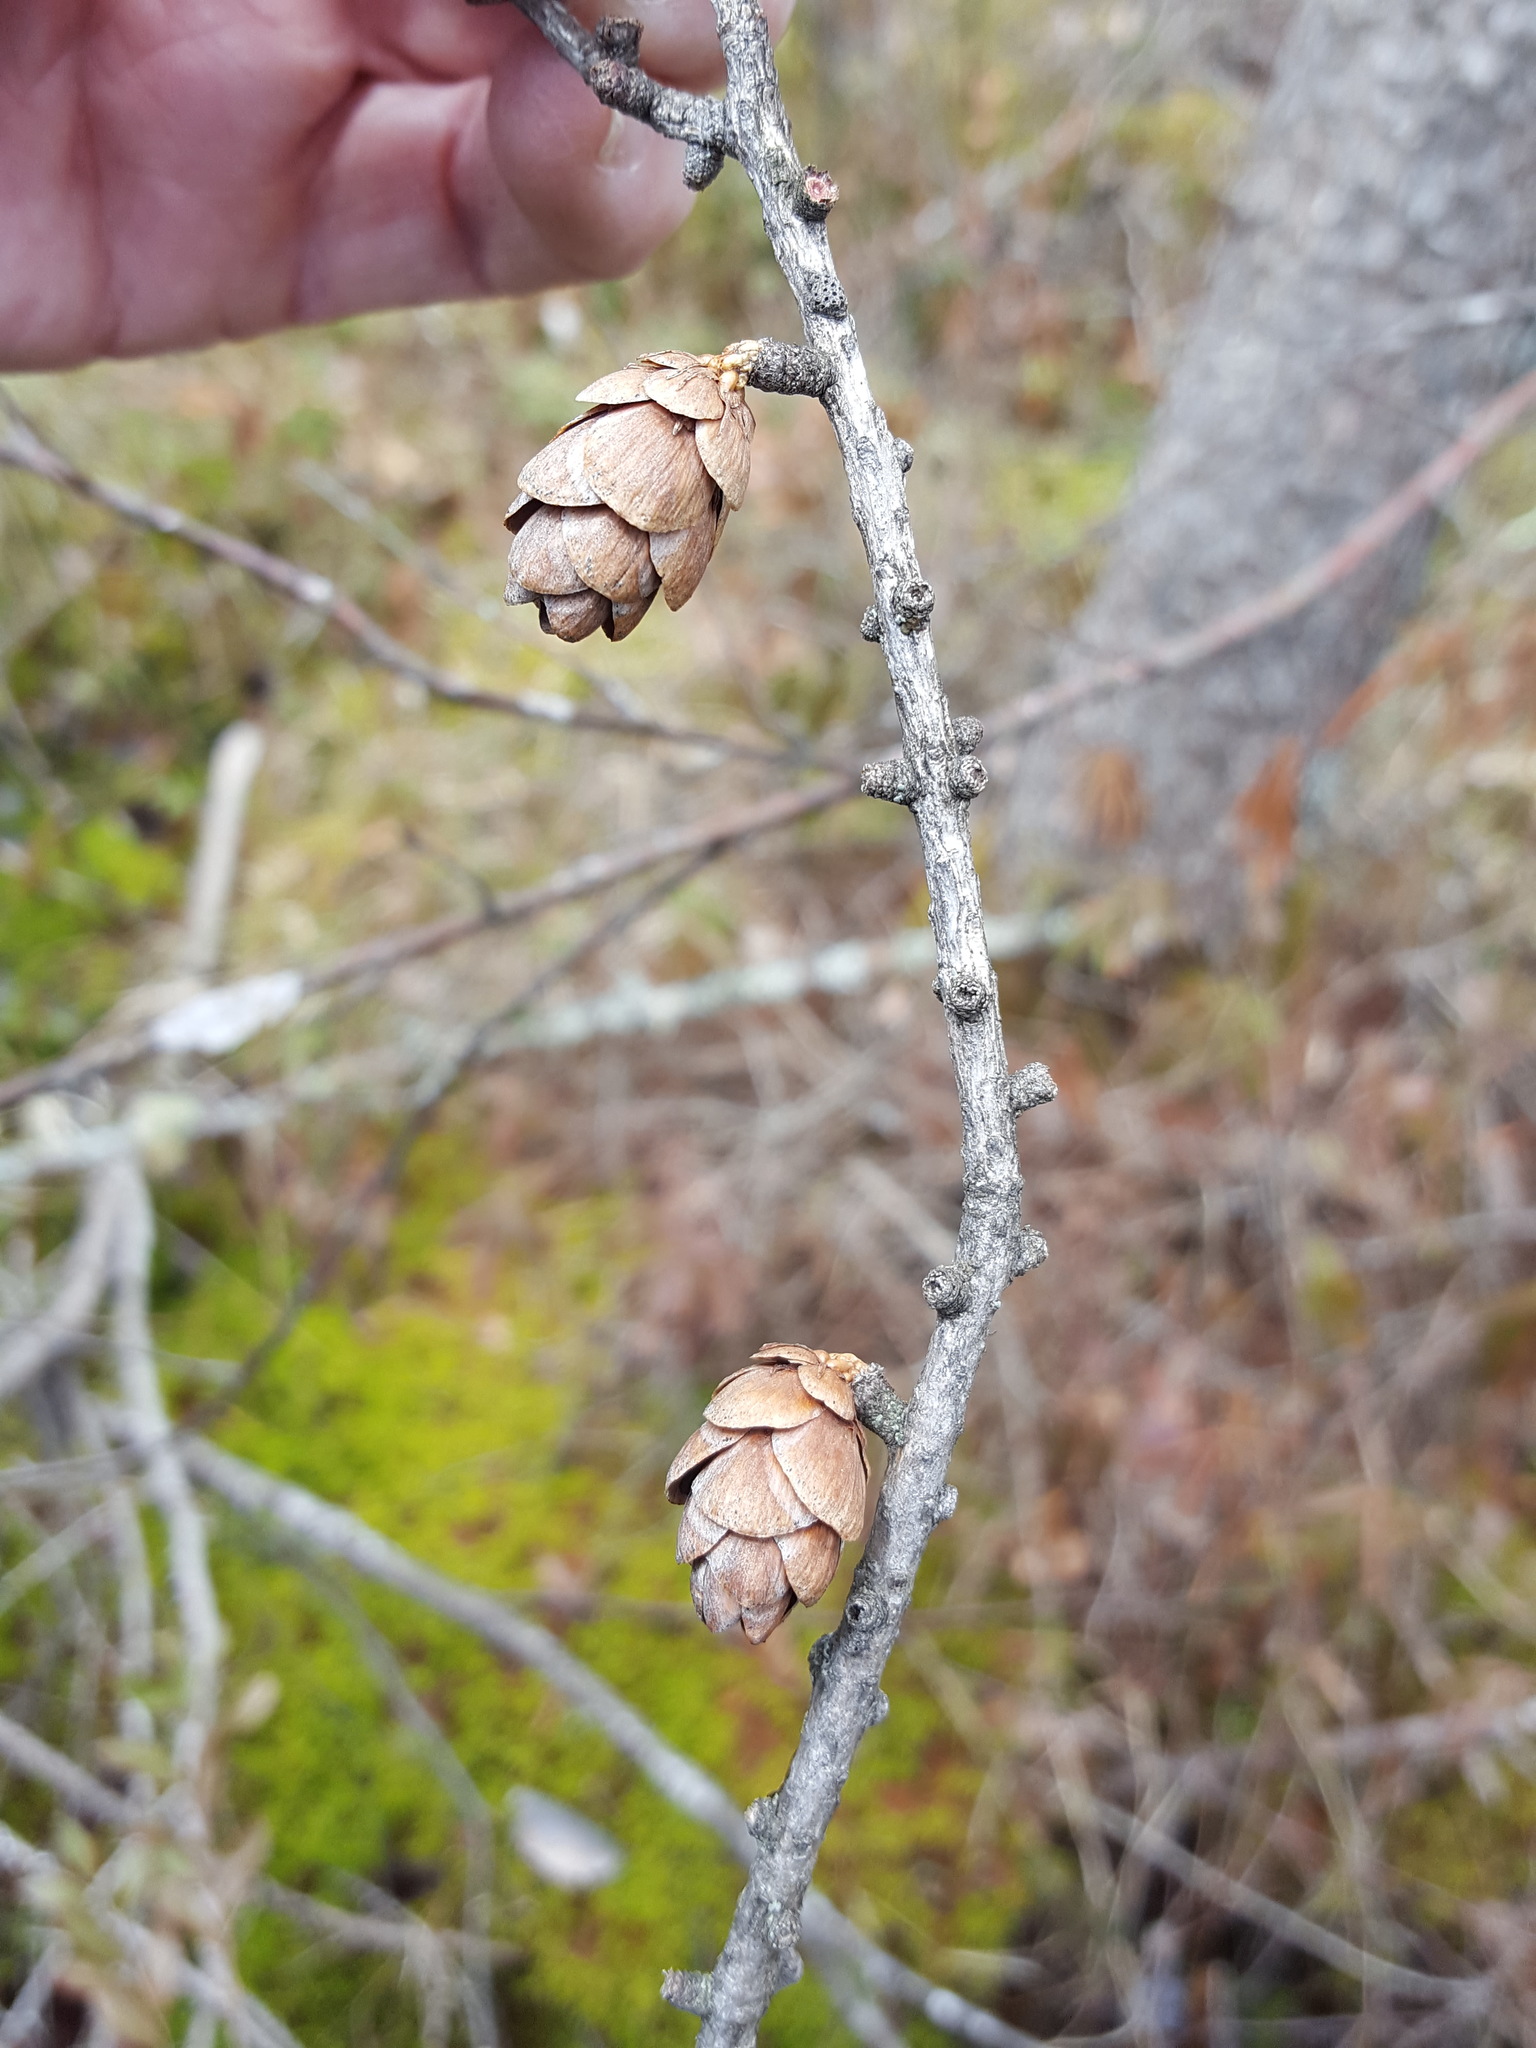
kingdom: Plantae
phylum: Tracheophyta
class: Pinopsida
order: Pinales
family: Pinaceae
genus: Larix
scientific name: Larix laricina
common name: American larch
